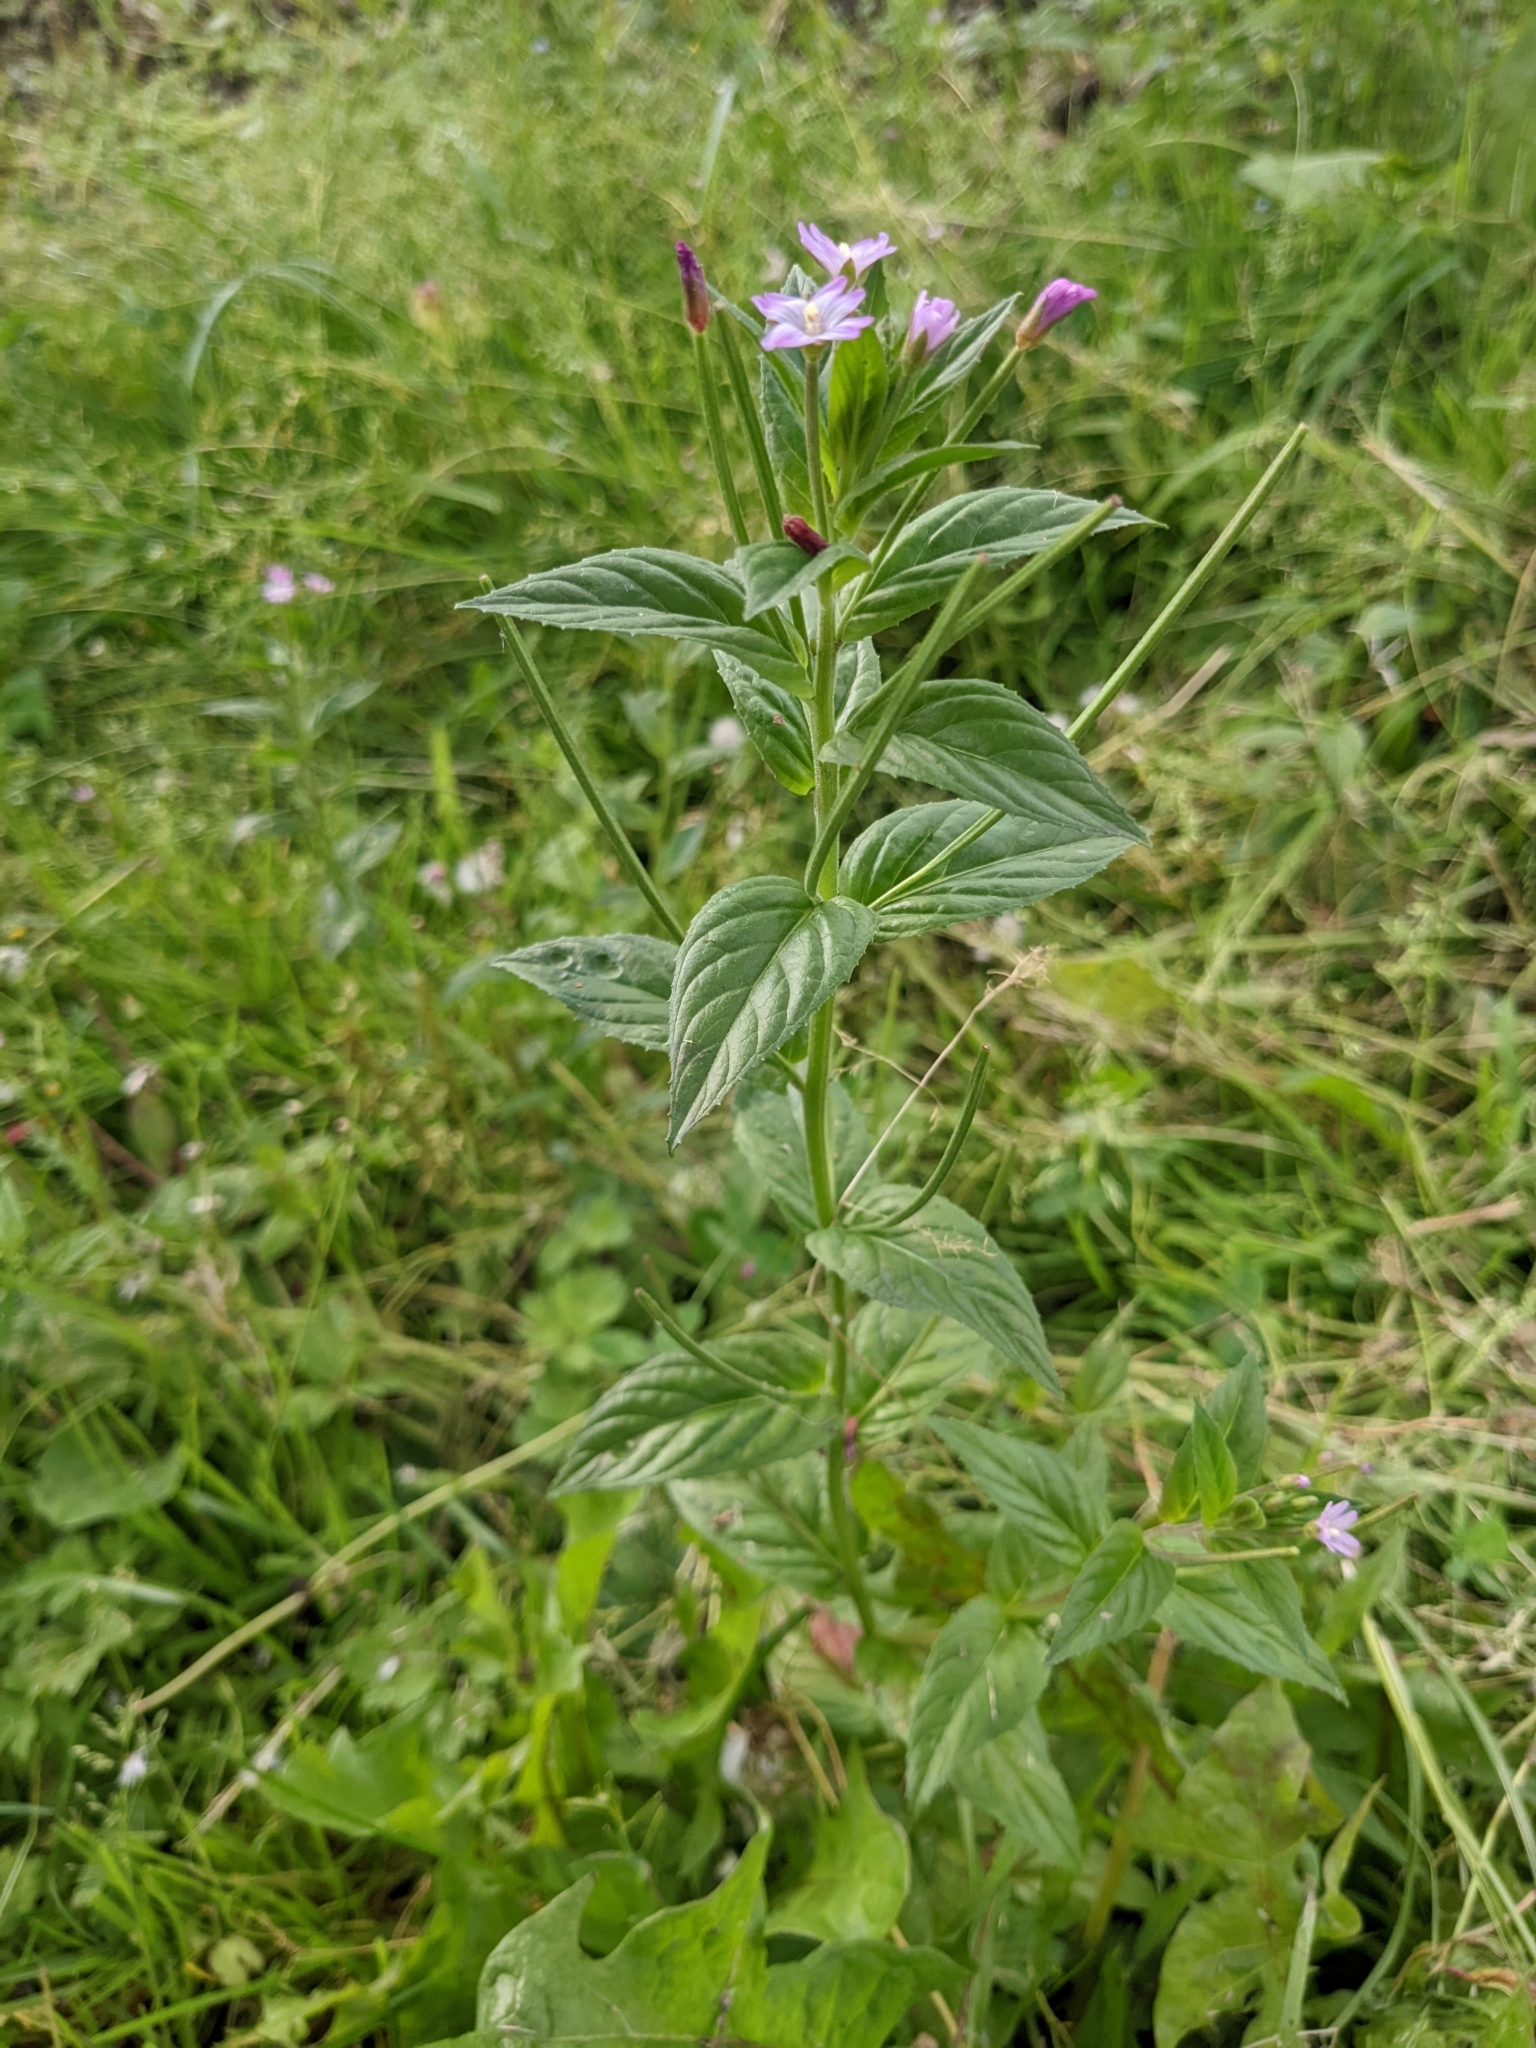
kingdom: Plantae
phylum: Tracheophyta
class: Magnoliopsida
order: Brassicales
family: Brassicaceae
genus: Capsella
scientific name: Capsella bursa-pastoris
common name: Shepherd's purse
